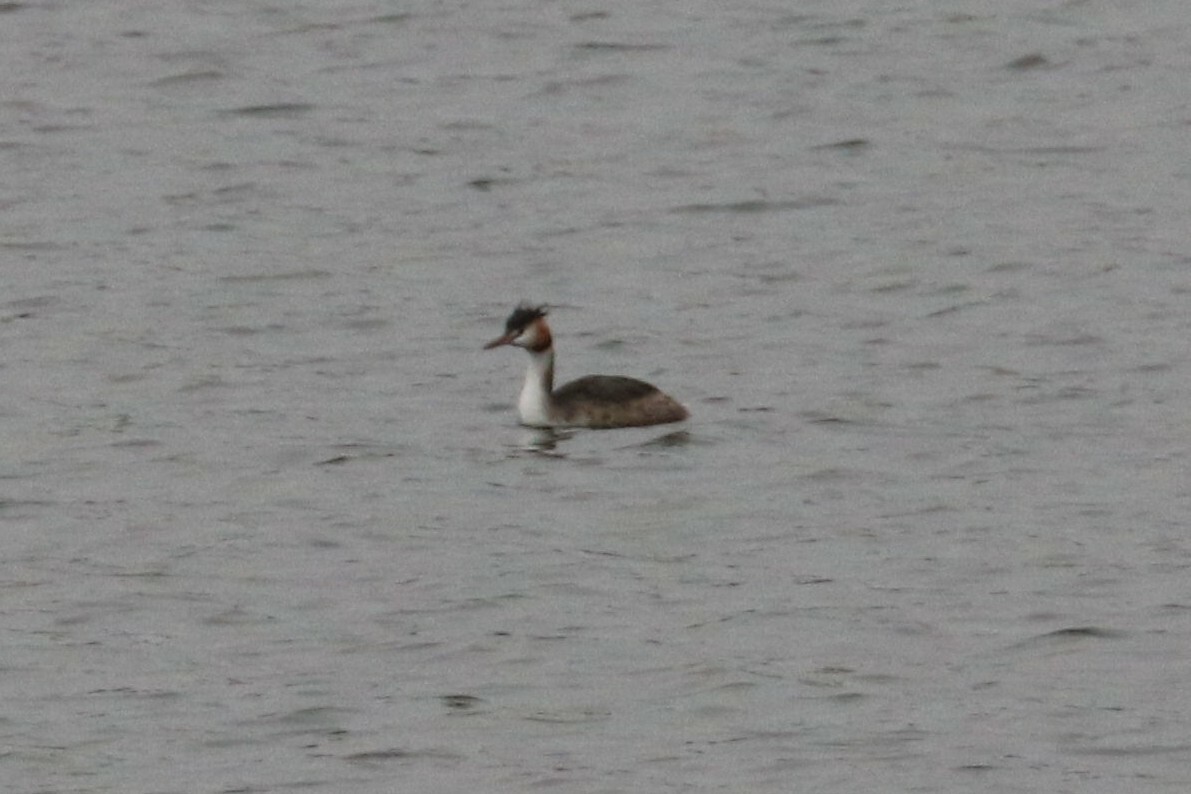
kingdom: Animalia
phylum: Chordata
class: Aves
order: Podicipediformes
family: Podicipedidae
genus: Podiceps
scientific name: Podiceps cristatus
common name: Great crested grebe
